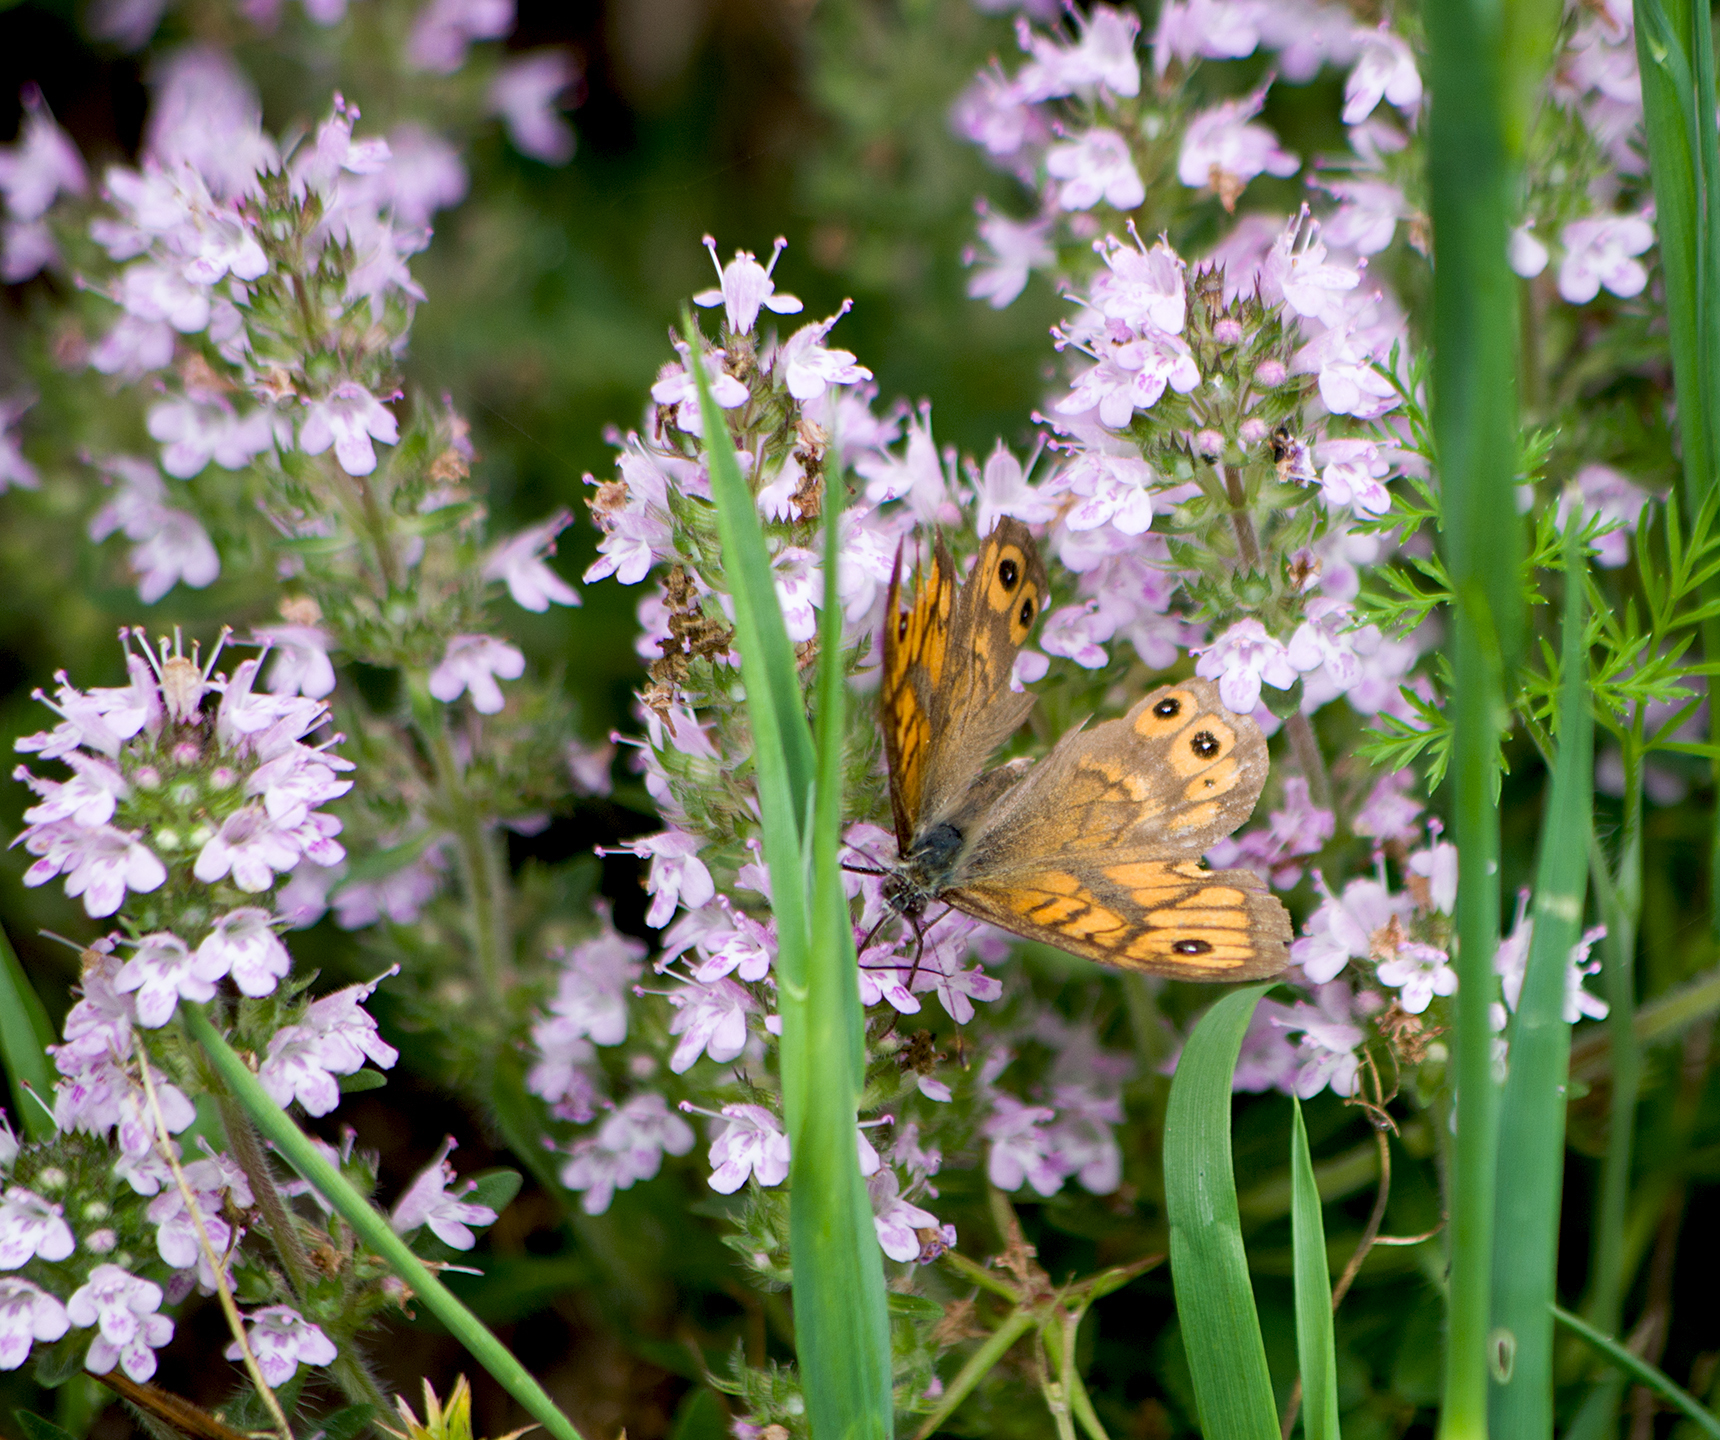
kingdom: Animalia
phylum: Arthropoda
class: Insecta
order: Lepidoptera
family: Nymphalidae
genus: Pararge
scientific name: Pararge Lasiommata megera
